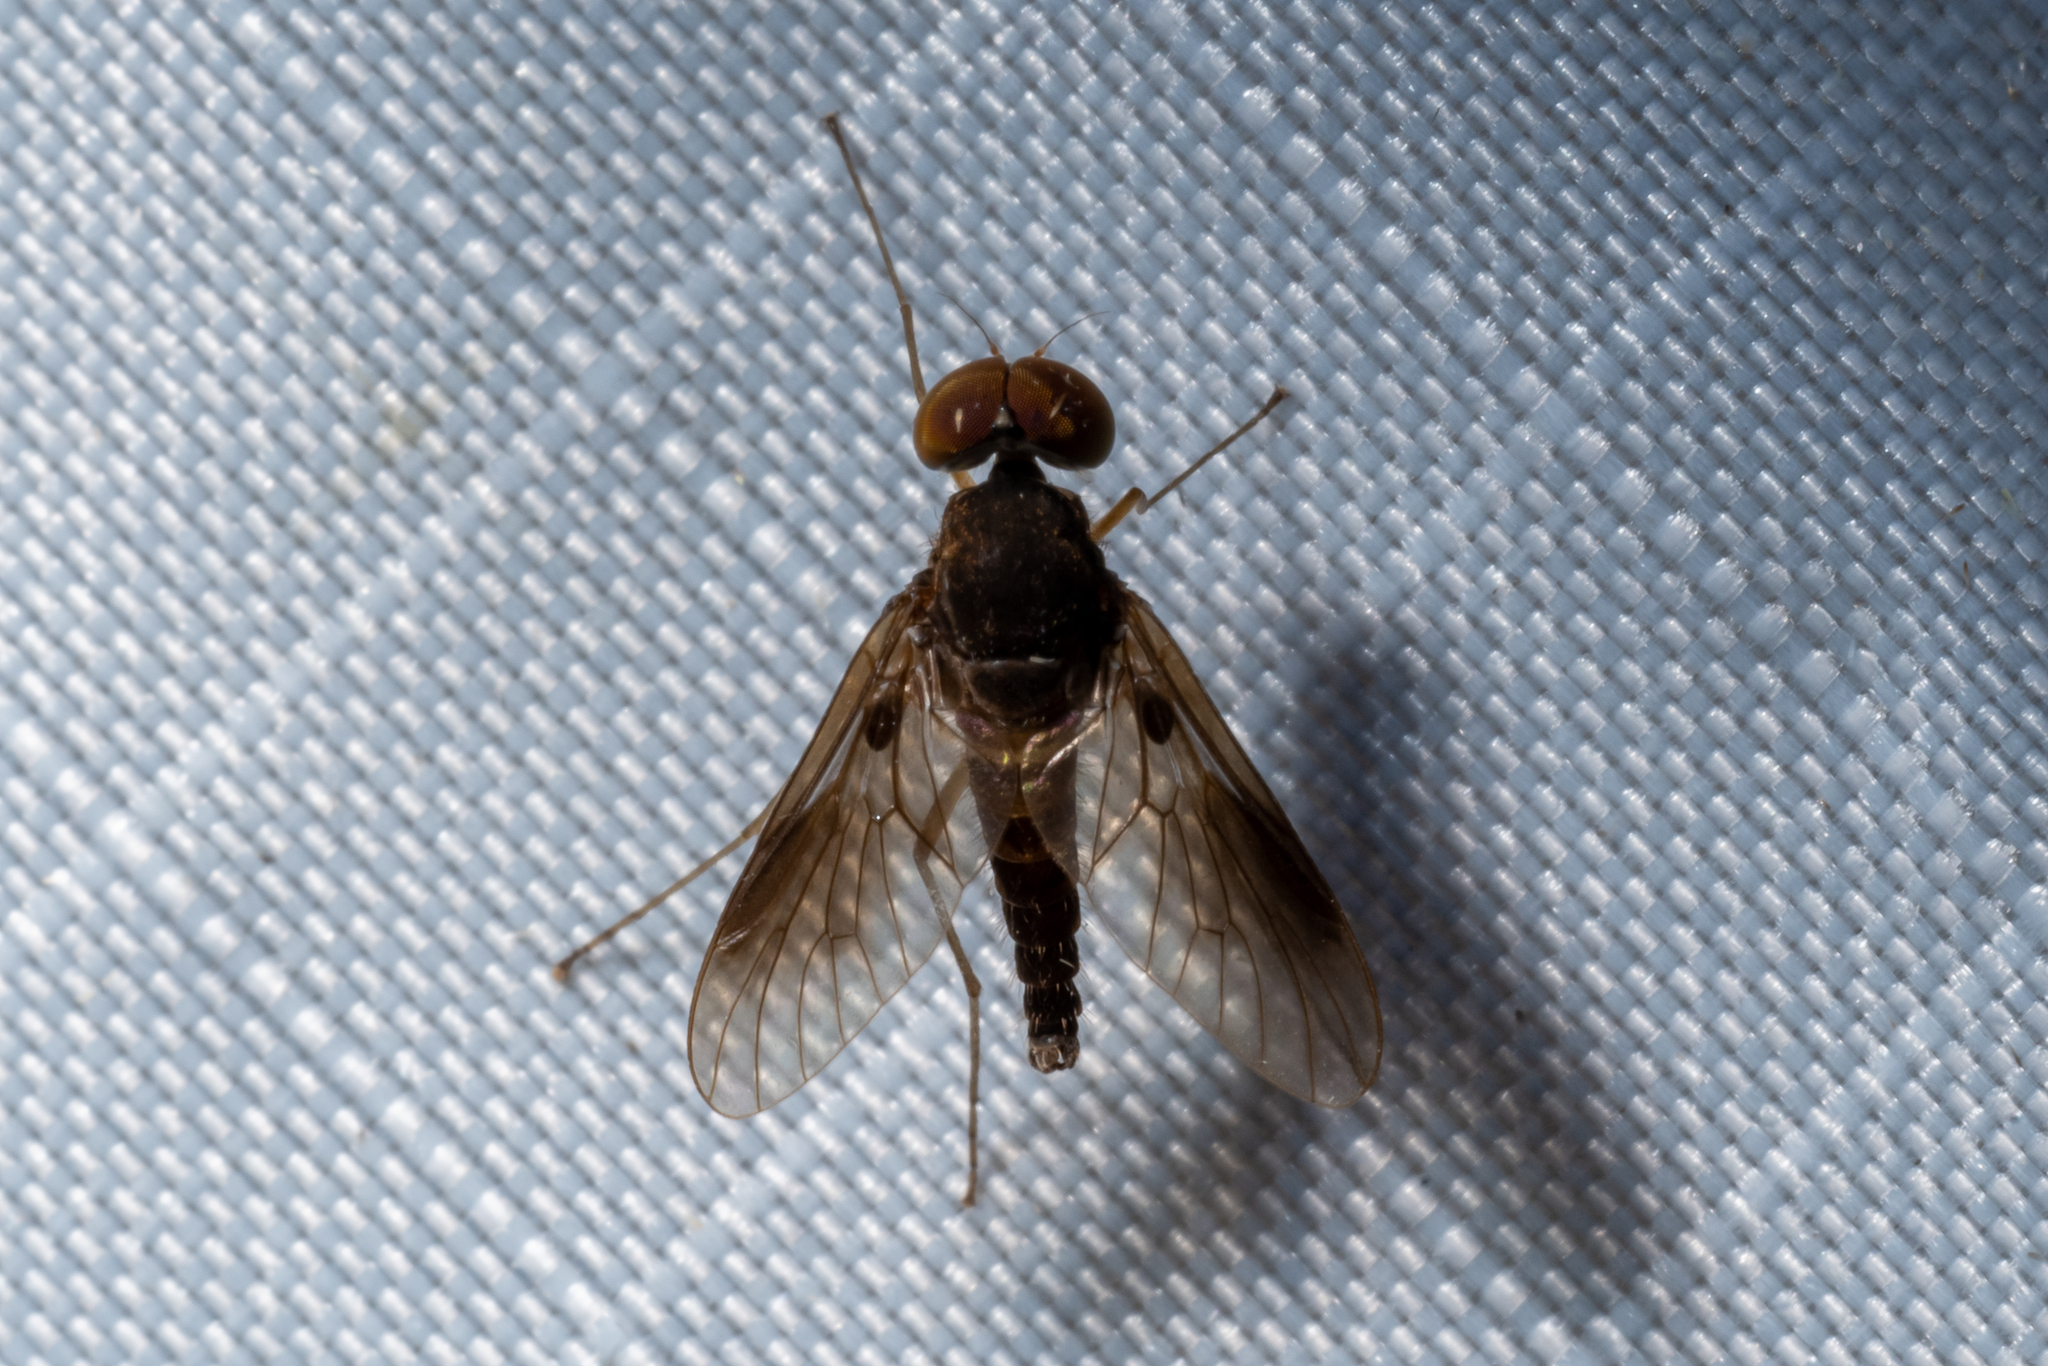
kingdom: Animalia
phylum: Arthropoda
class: Insecta
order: Diptera
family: Rhagionidae
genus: Chrysopilus
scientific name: Chrysopilus quadratus
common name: Quadrate snipe fly
